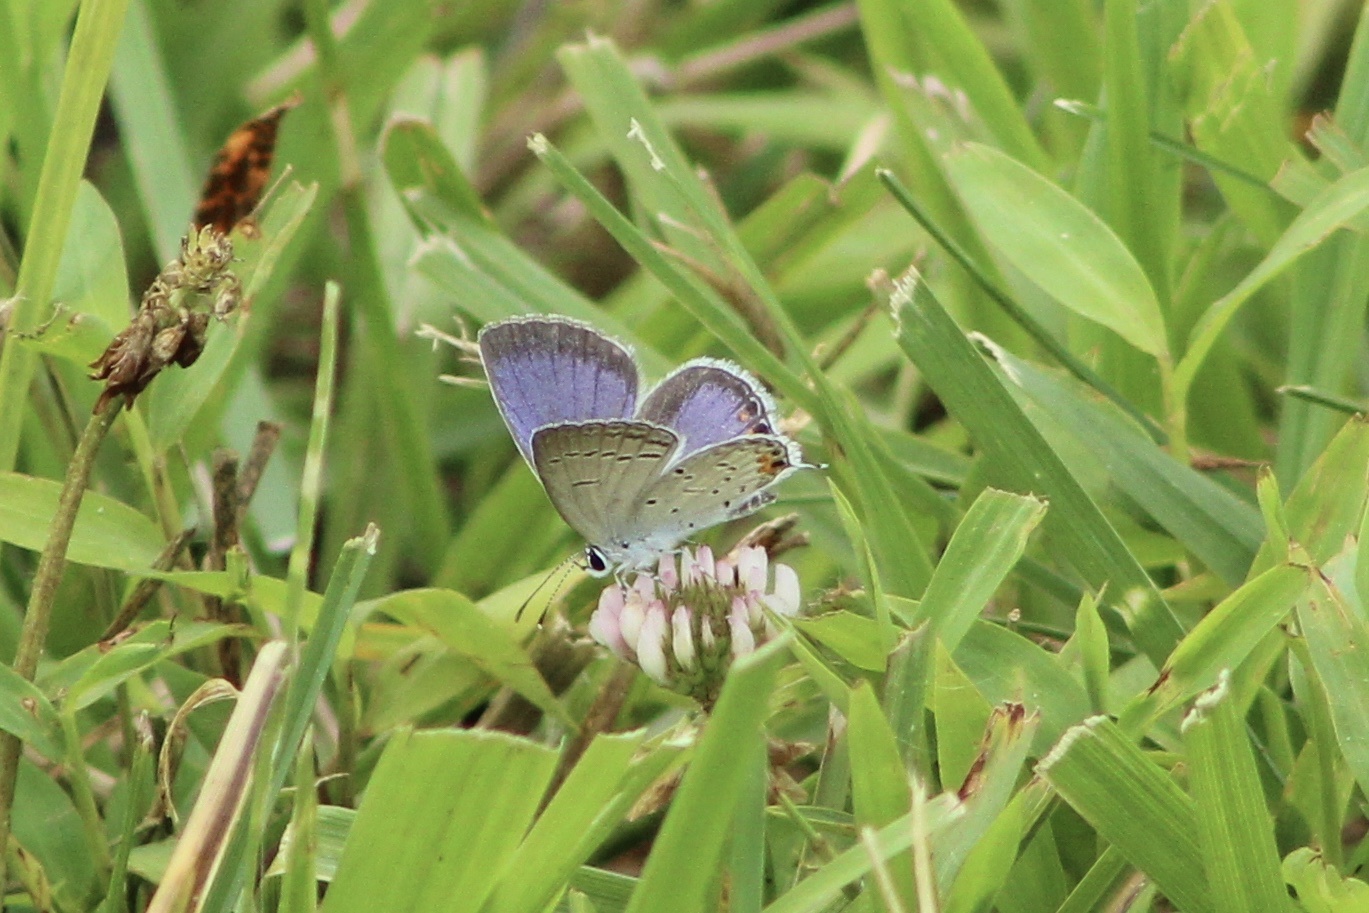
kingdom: Animalia
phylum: Arthropoda
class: Insecta
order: Lepidoptera
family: Lycaenidae
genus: Elkalyce
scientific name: Elkalyce comyntas
